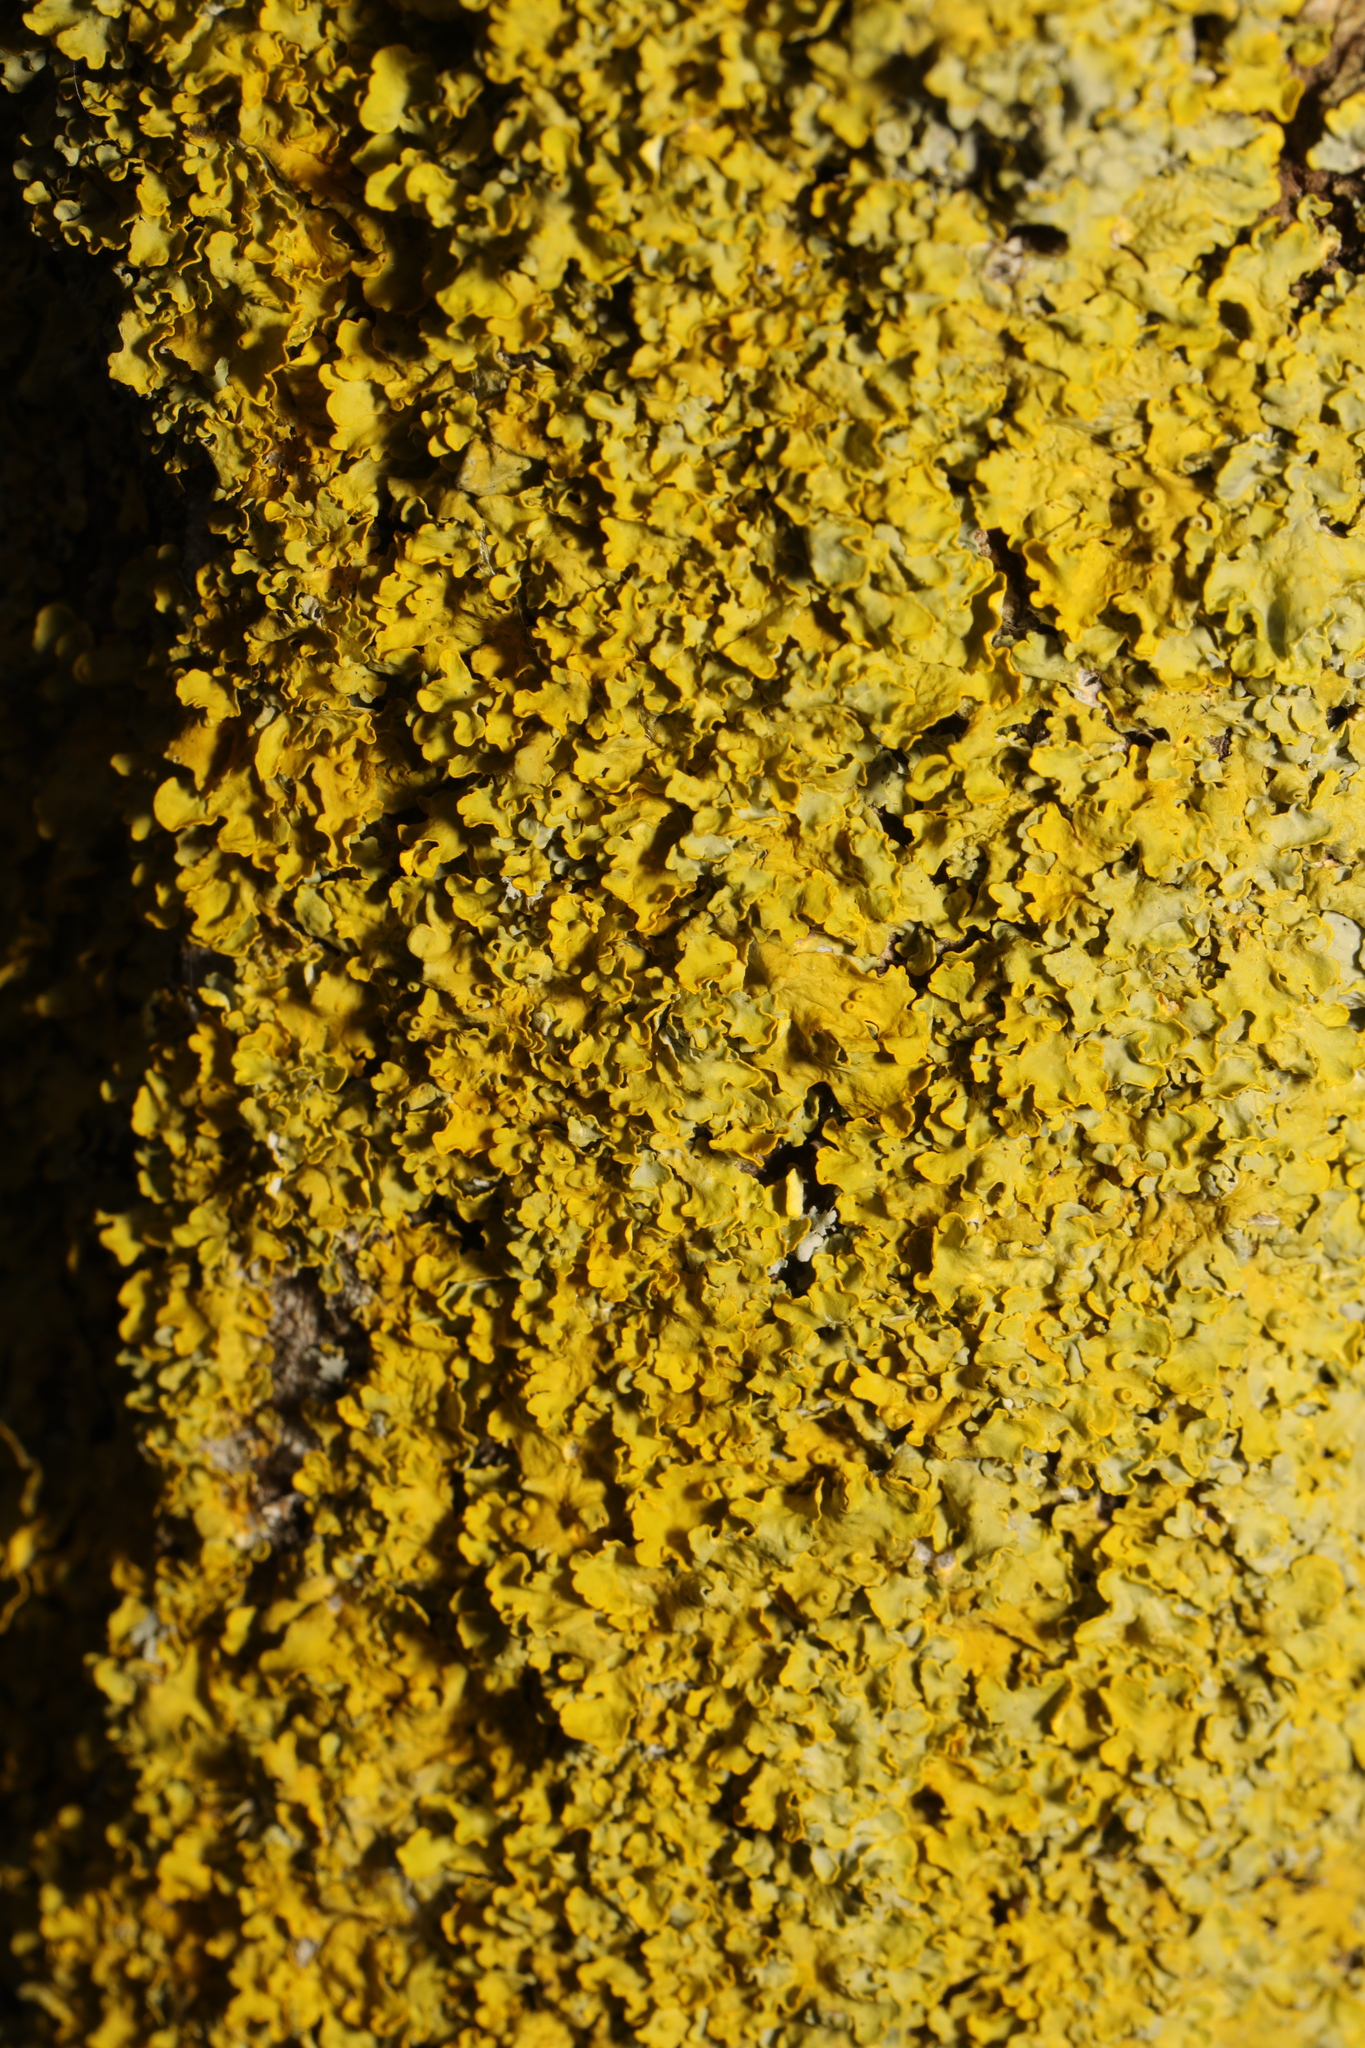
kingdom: Fungi
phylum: Ascomycota
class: Lecanoromycetes
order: Teloschistales
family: Teloschistaceae
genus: Xanthoria
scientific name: Xanthoria parietina
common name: Common orange lichen
